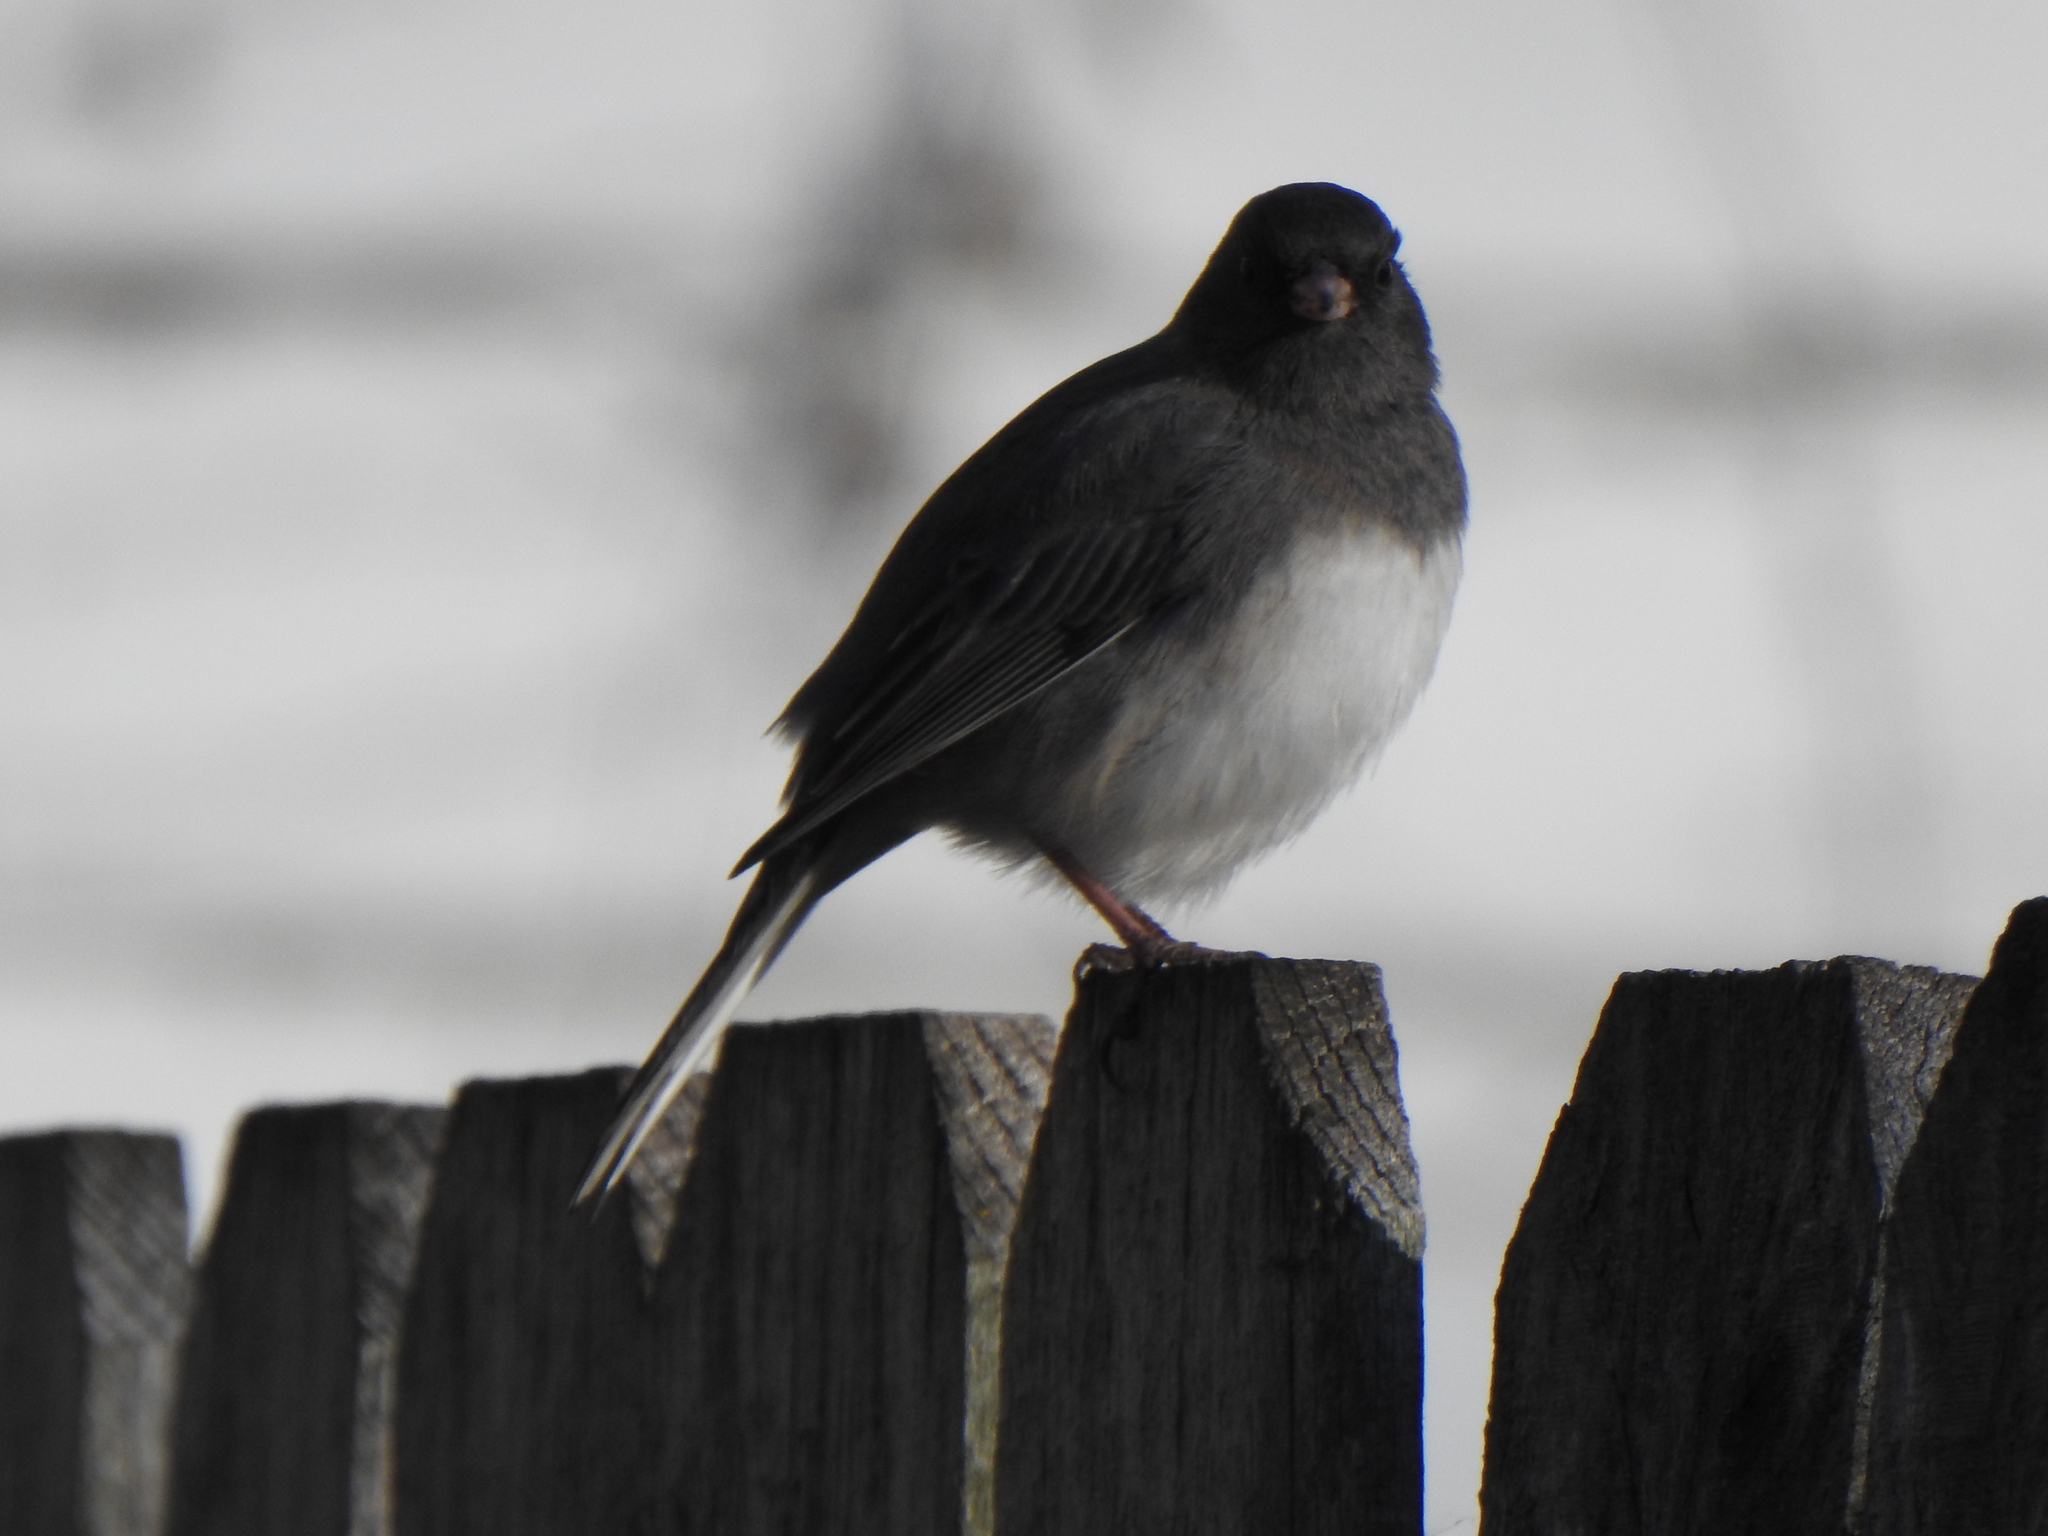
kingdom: Animalia
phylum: Chordata
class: Aves
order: Passeriformes
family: Passerellidae
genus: Junco
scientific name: Junco hyemalis
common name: Dark-eyed junco
